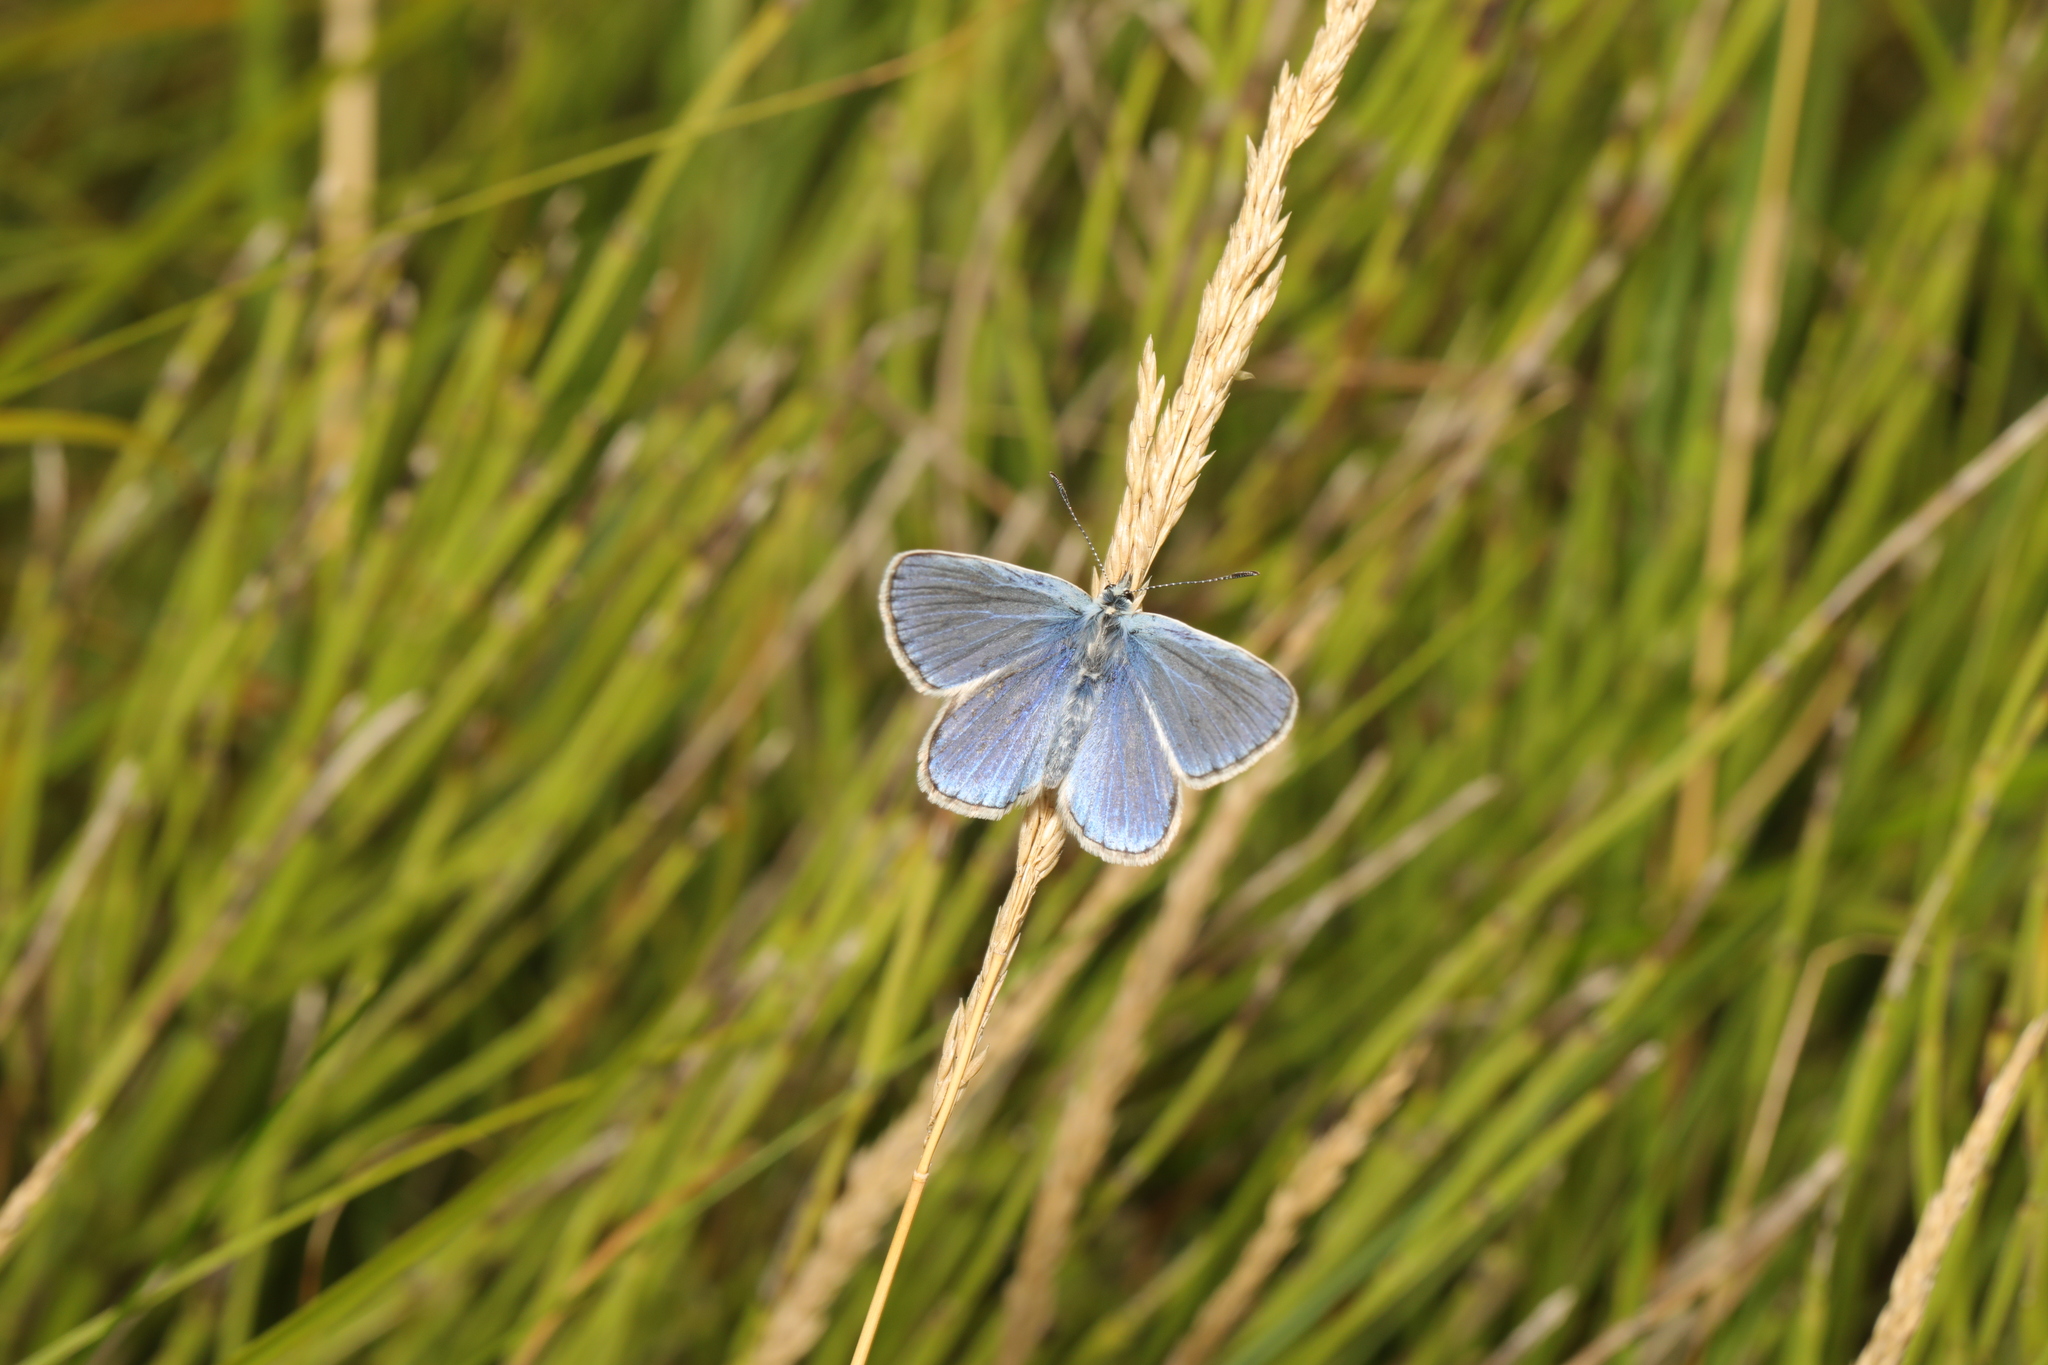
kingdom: Animalia
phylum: Arthropoda
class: Insecta
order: Lepidoptera
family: Lycaenidae
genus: Polyommatus
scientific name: Polyommatus icarus
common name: Common blue
